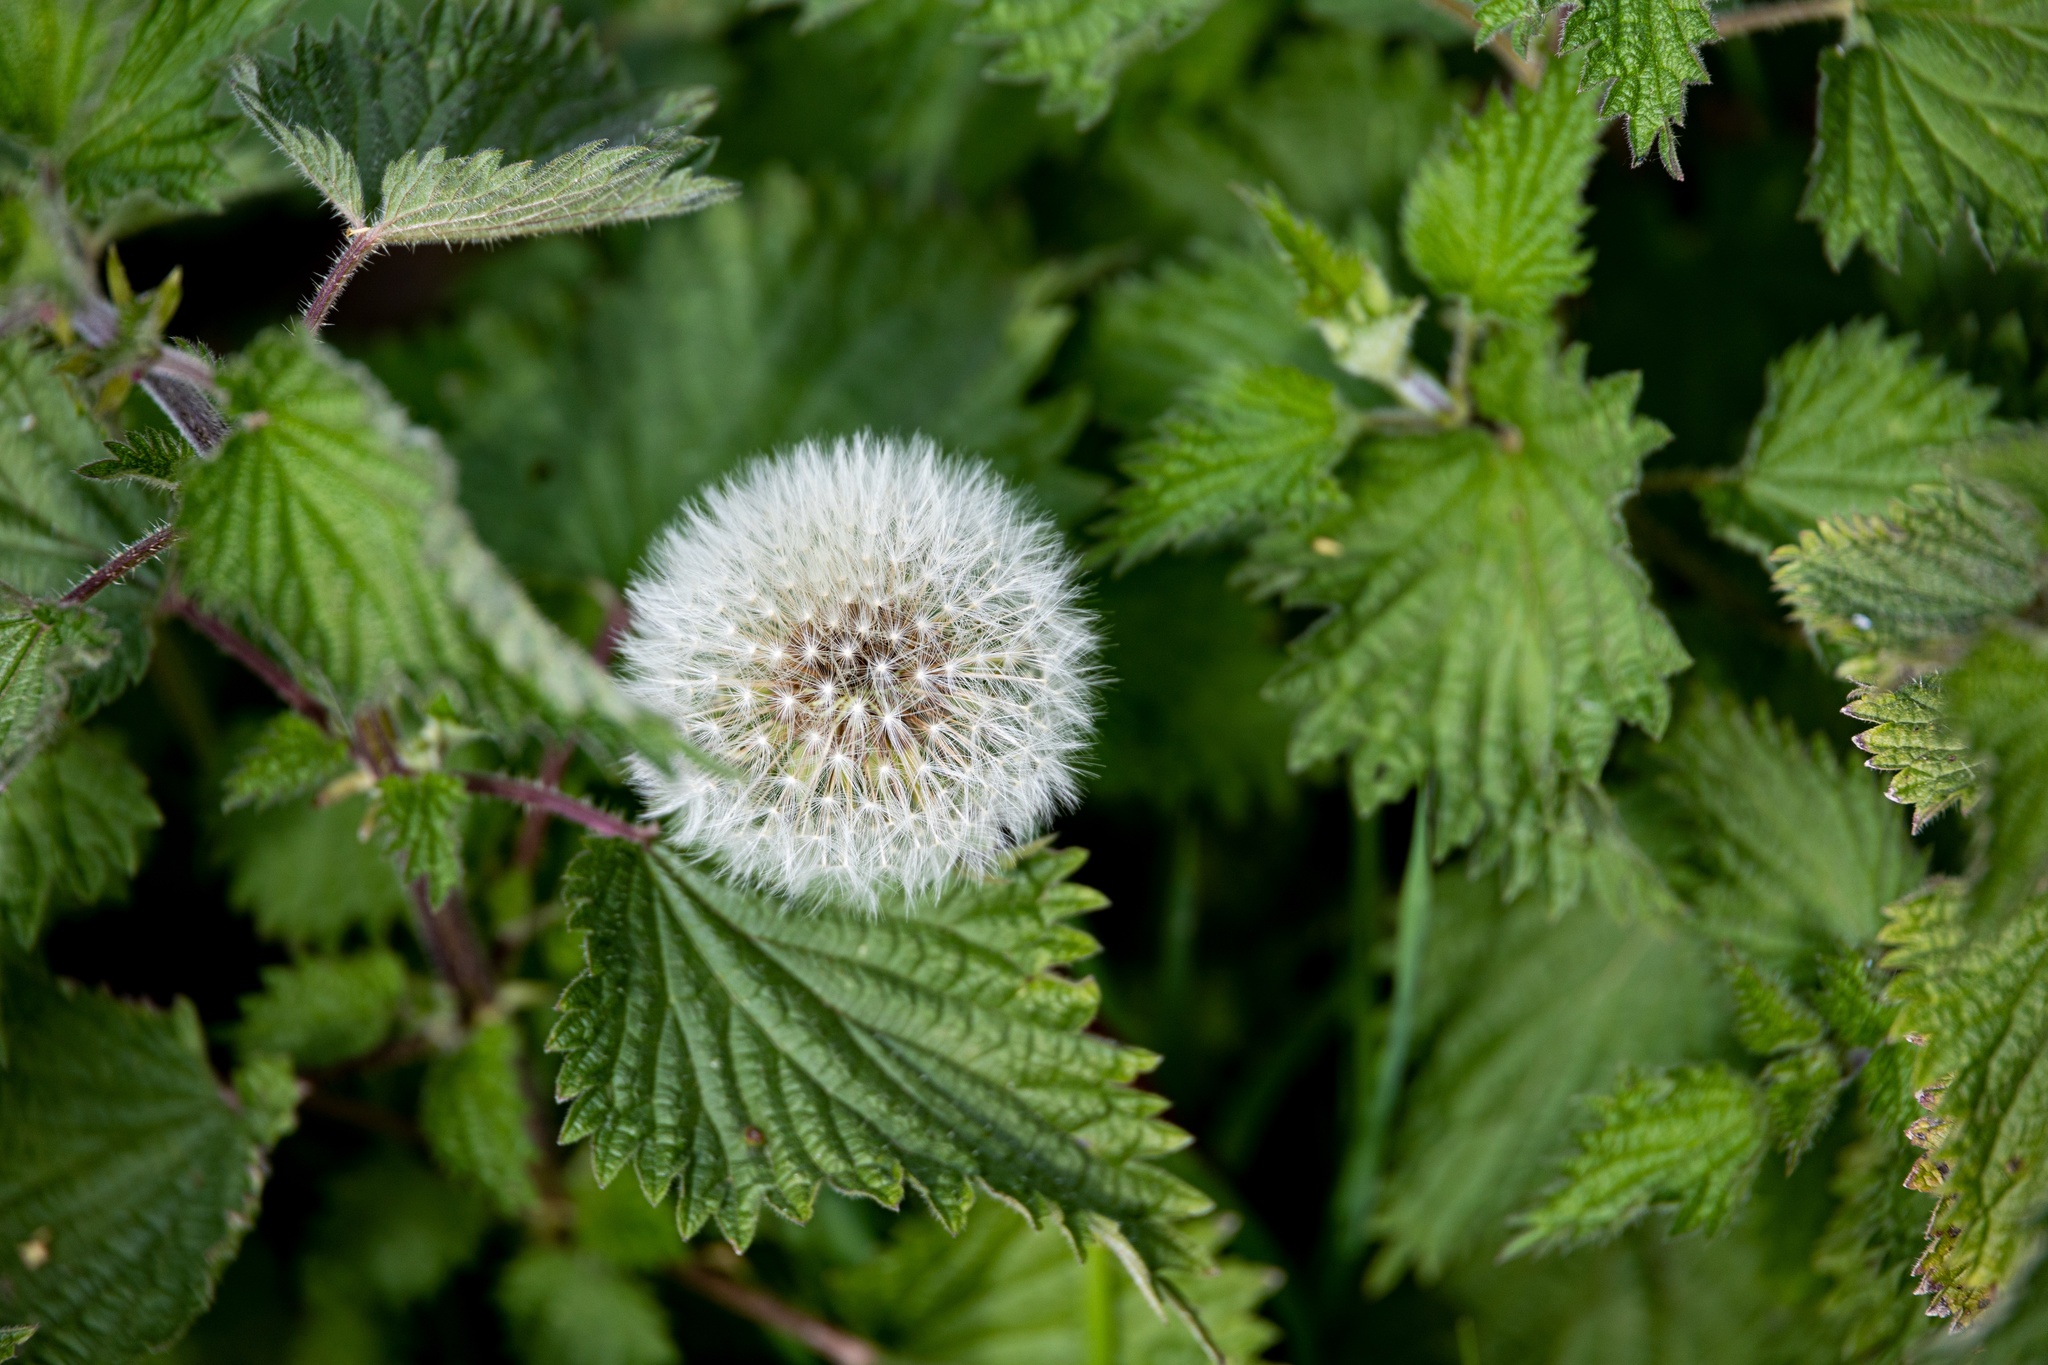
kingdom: Plantae
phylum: Tracheophyta
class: Magnoliopsida
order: Rosales
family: Urticaceae
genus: Urtica
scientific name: Urtica dioica
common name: Common nettle
